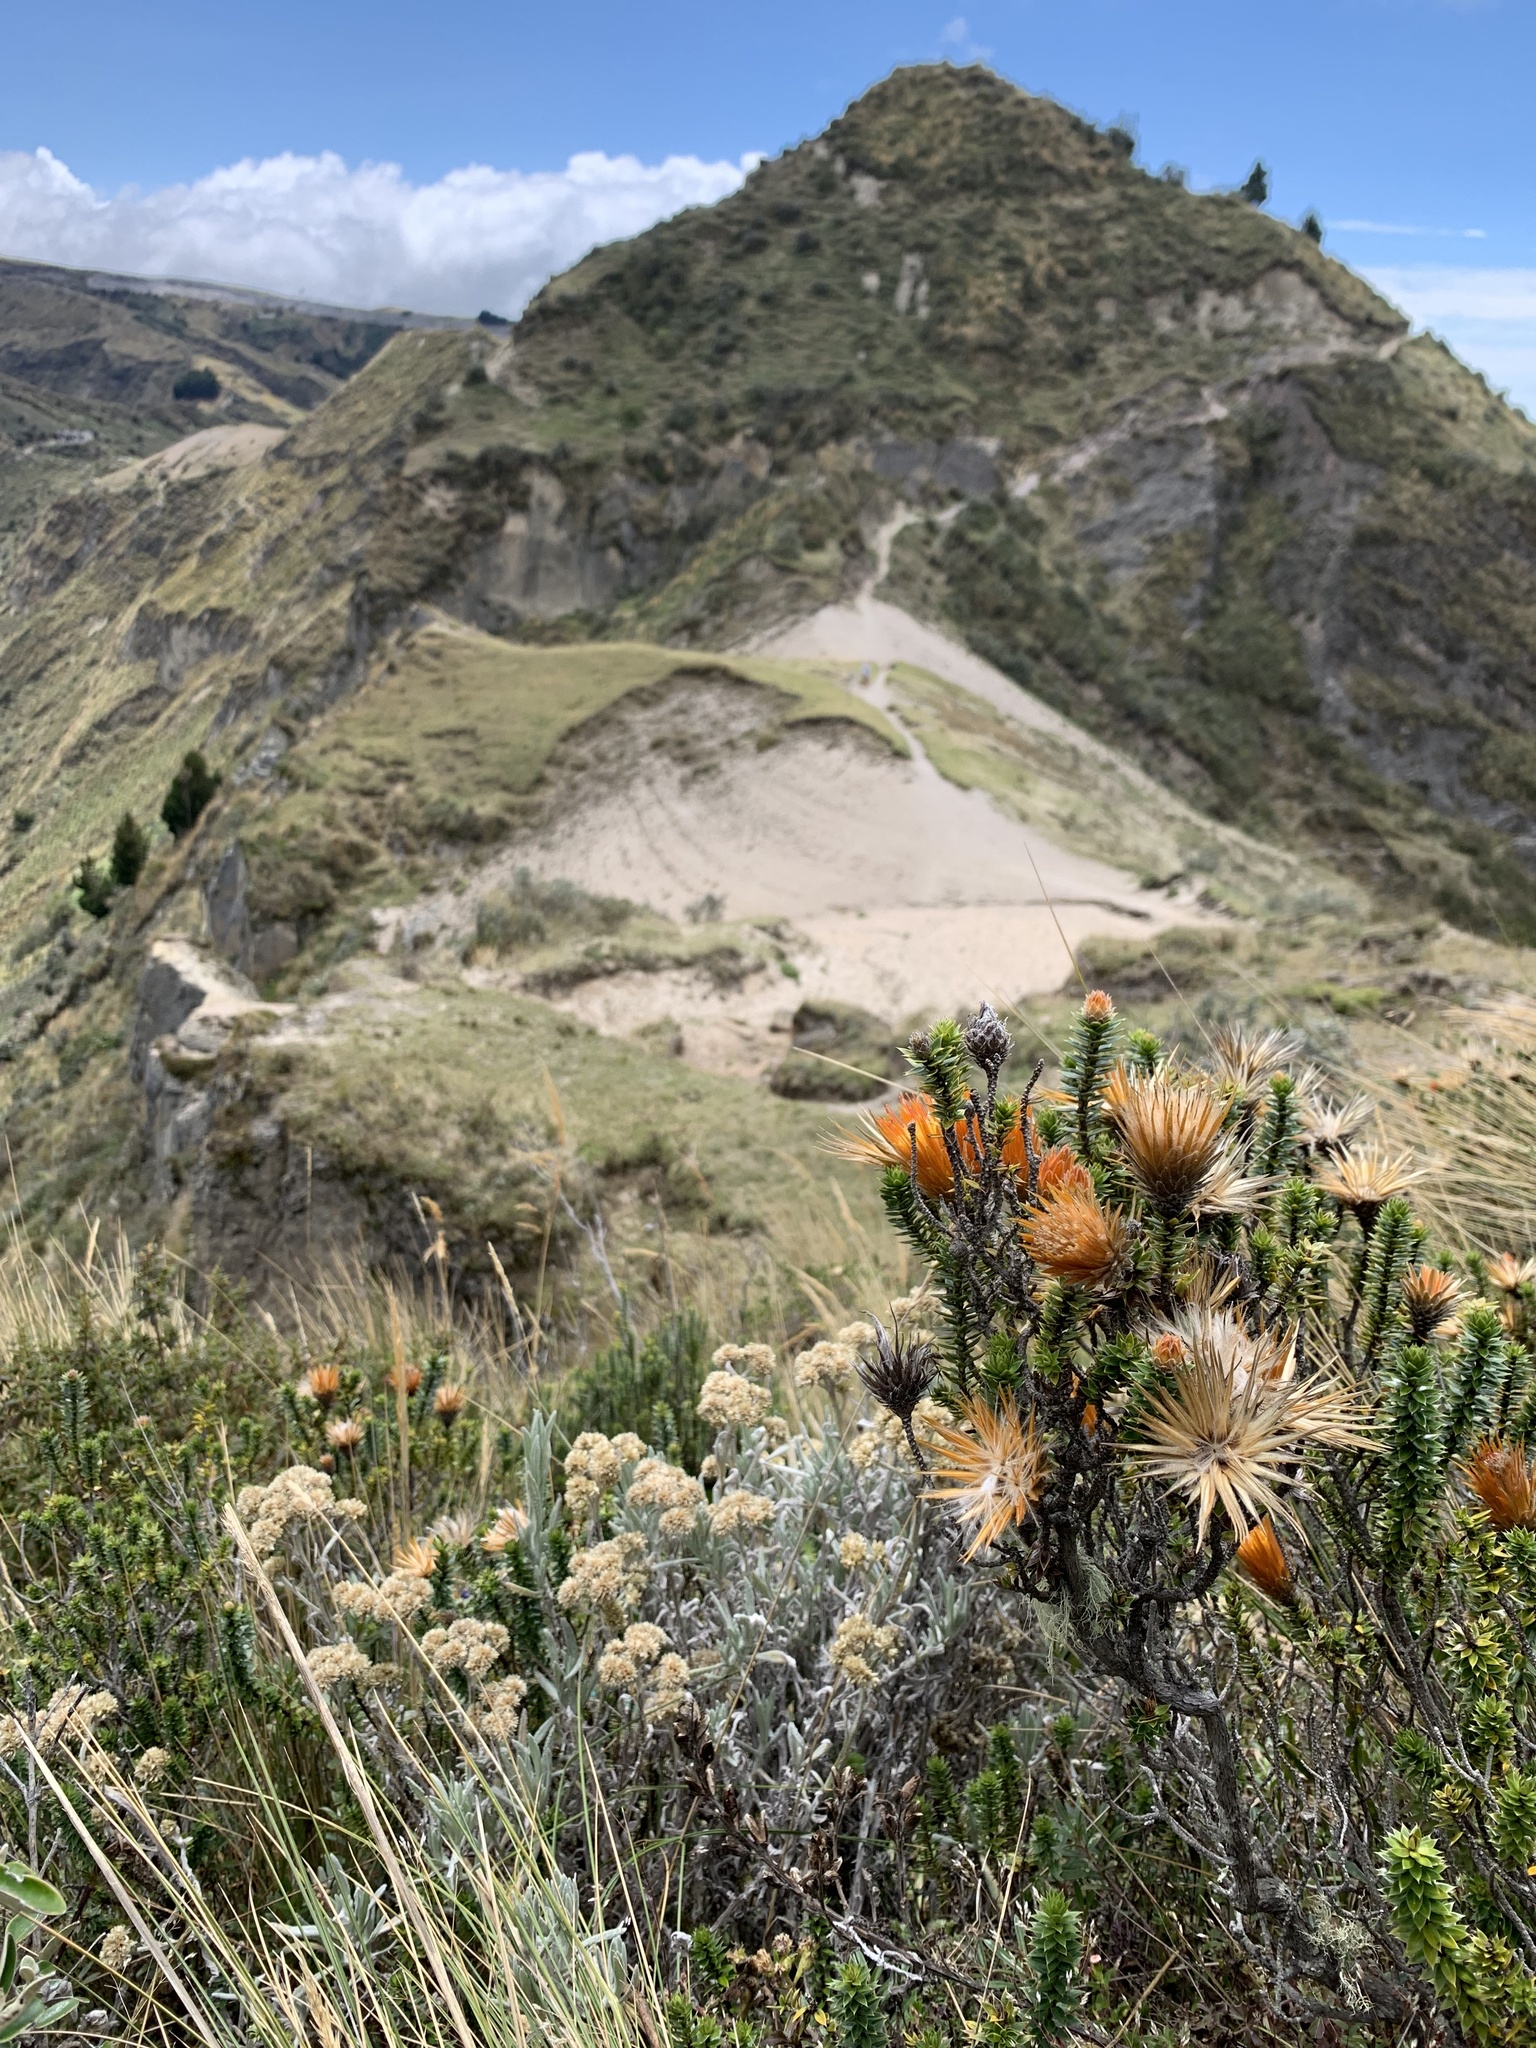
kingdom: Plantae
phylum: Tracheophyta
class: Magnoliopsida
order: Asterales
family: Asteraceae
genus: Chuquiraga
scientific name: Chuquiraga jussieui
